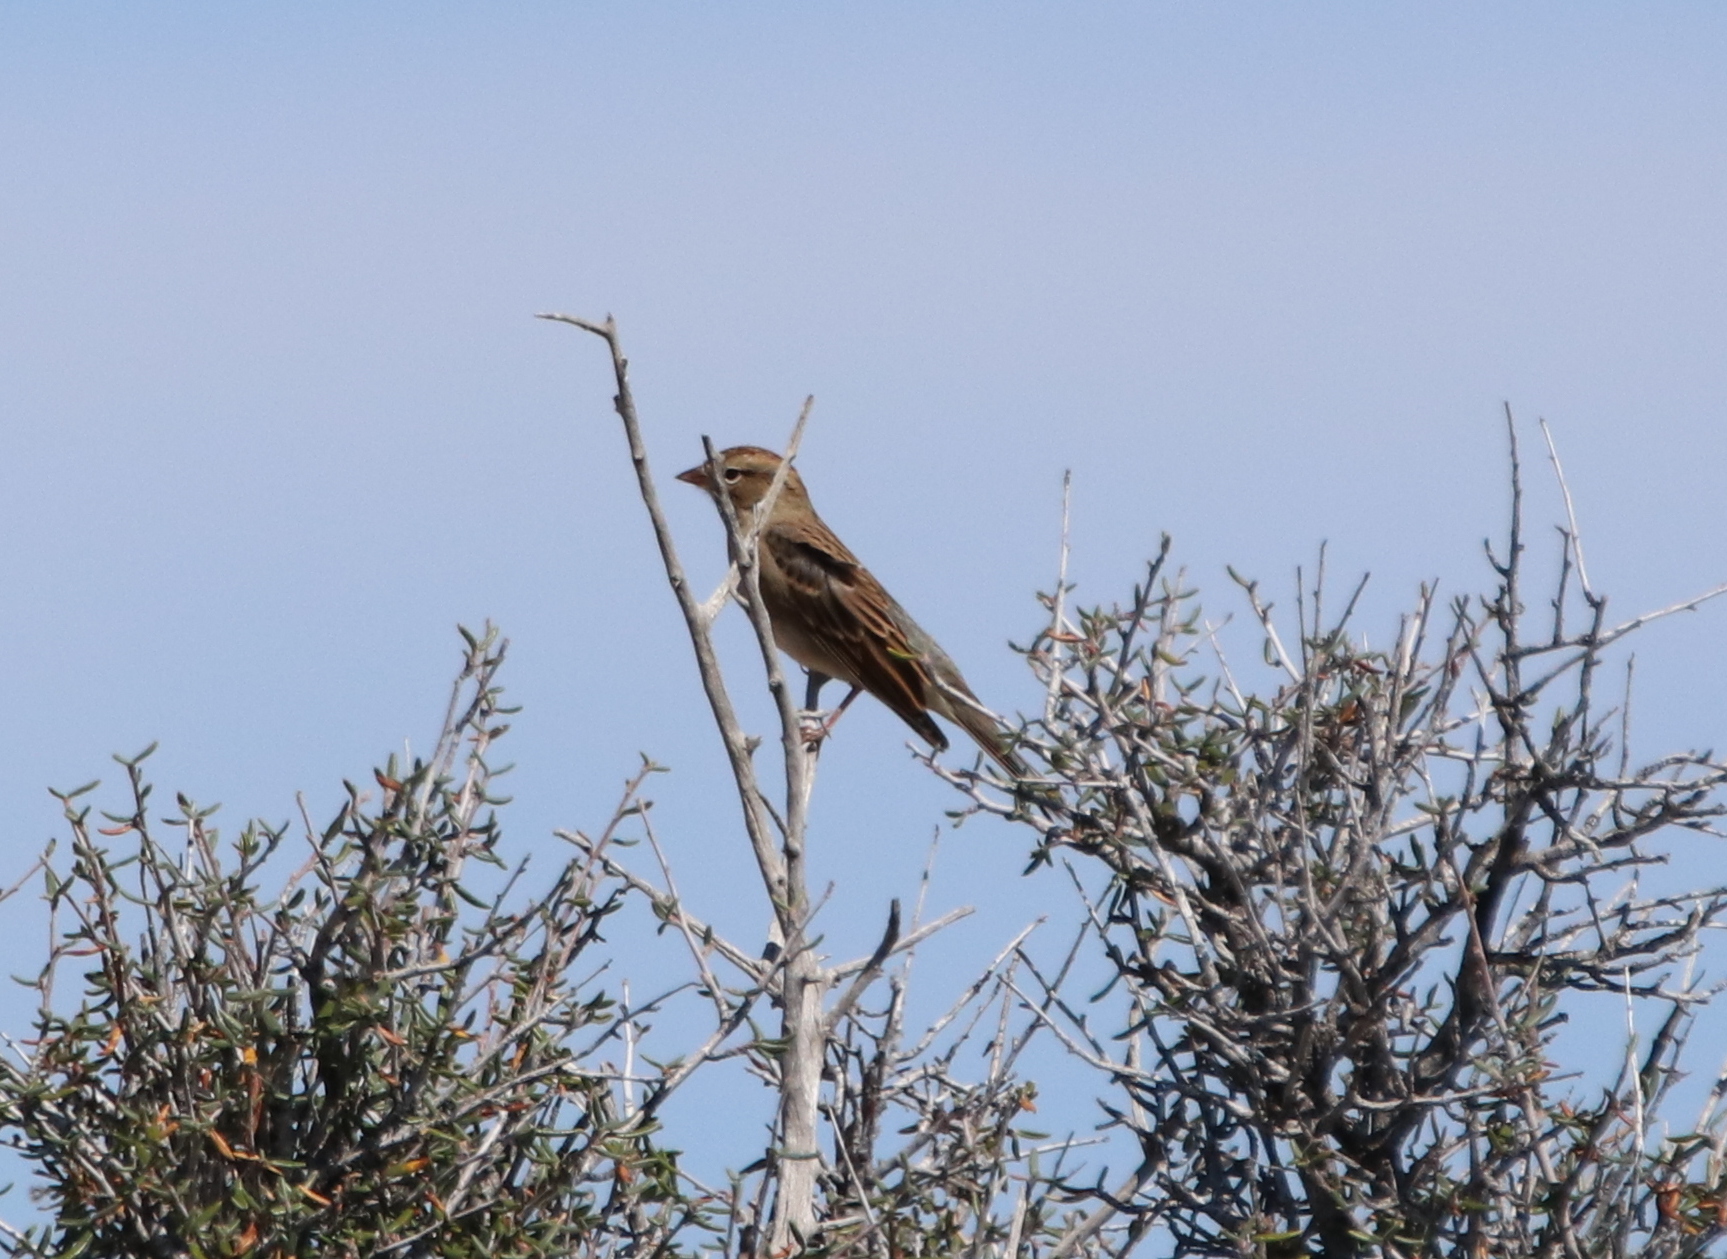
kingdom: Animalia
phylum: Chordata
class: Aves
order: Passeriformes
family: Passerellidae
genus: Spizella
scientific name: Spizella passerina
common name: Chipping sparrow
